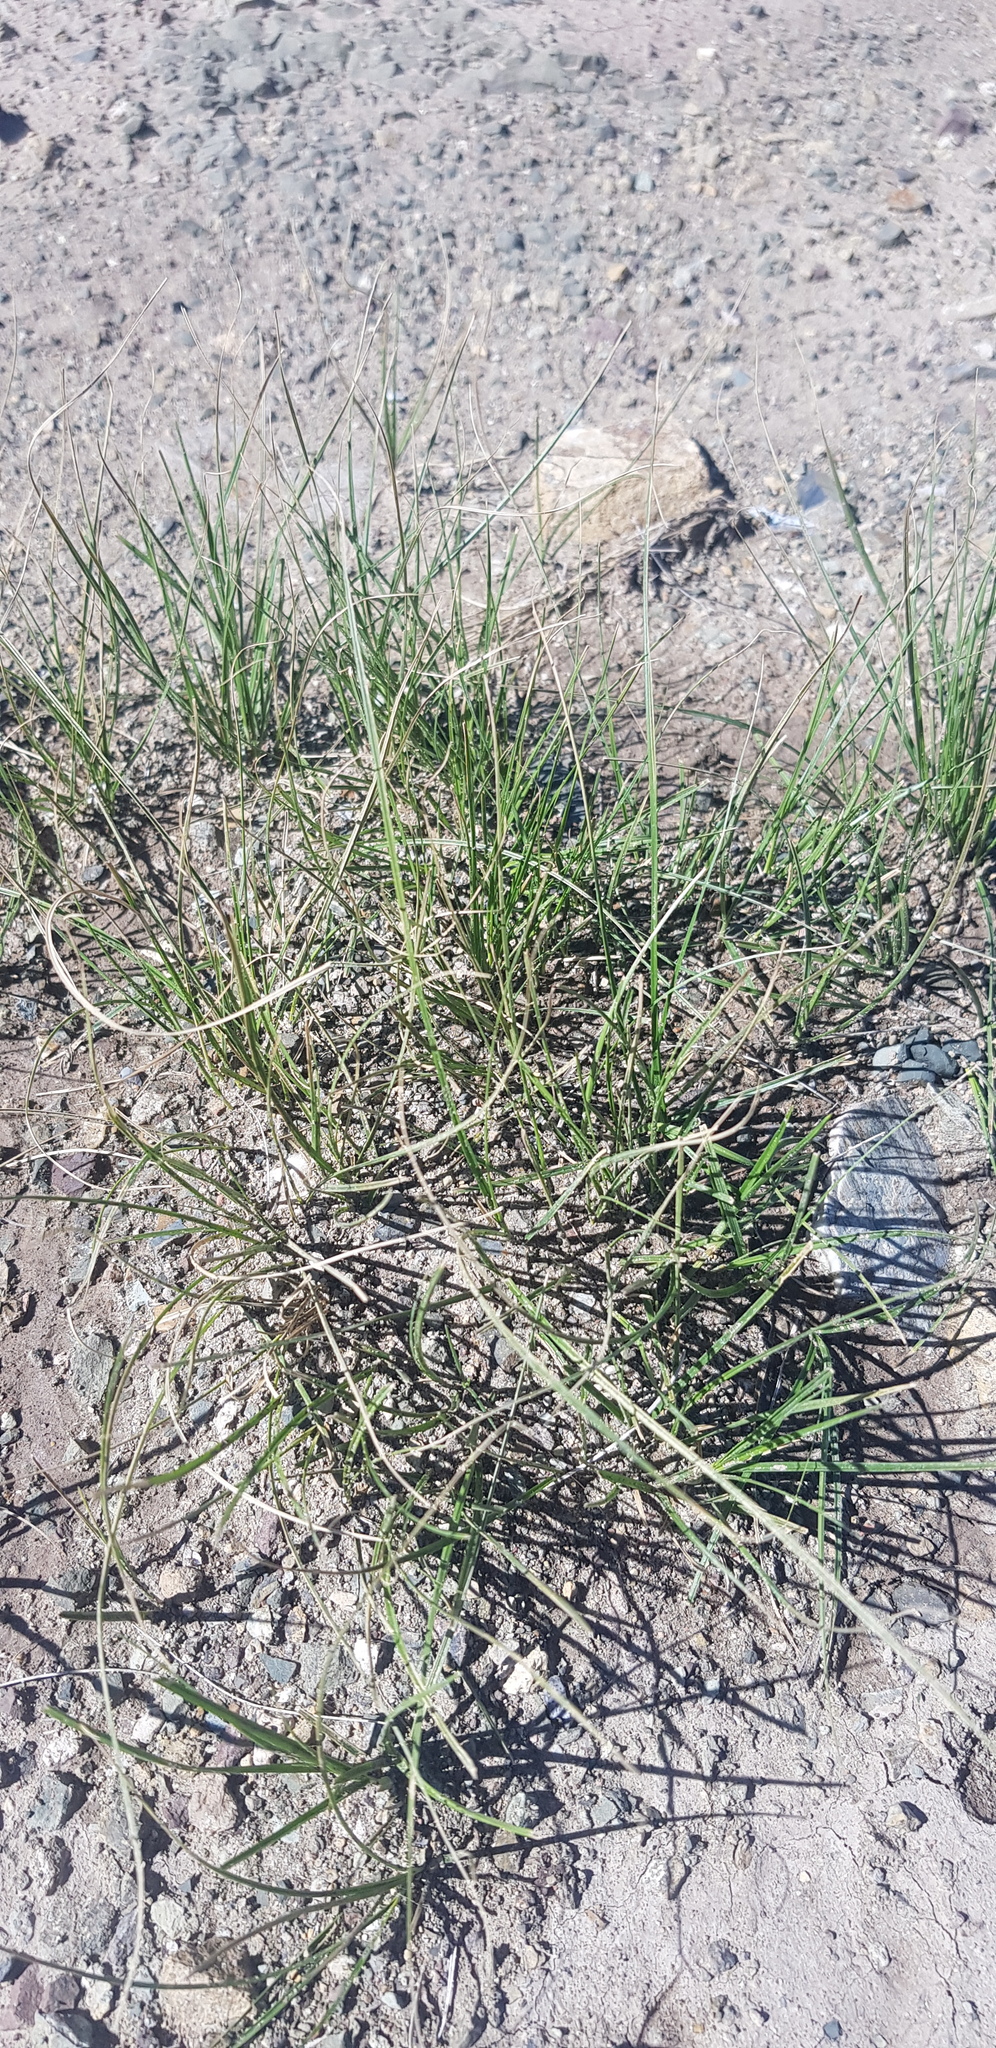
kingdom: Plantae
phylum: Tracheophyta
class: Liliopsida
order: Poales
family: Cyperaceae
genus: Carex
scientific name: Carex duriuscula
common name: Involute-leaved sedge
